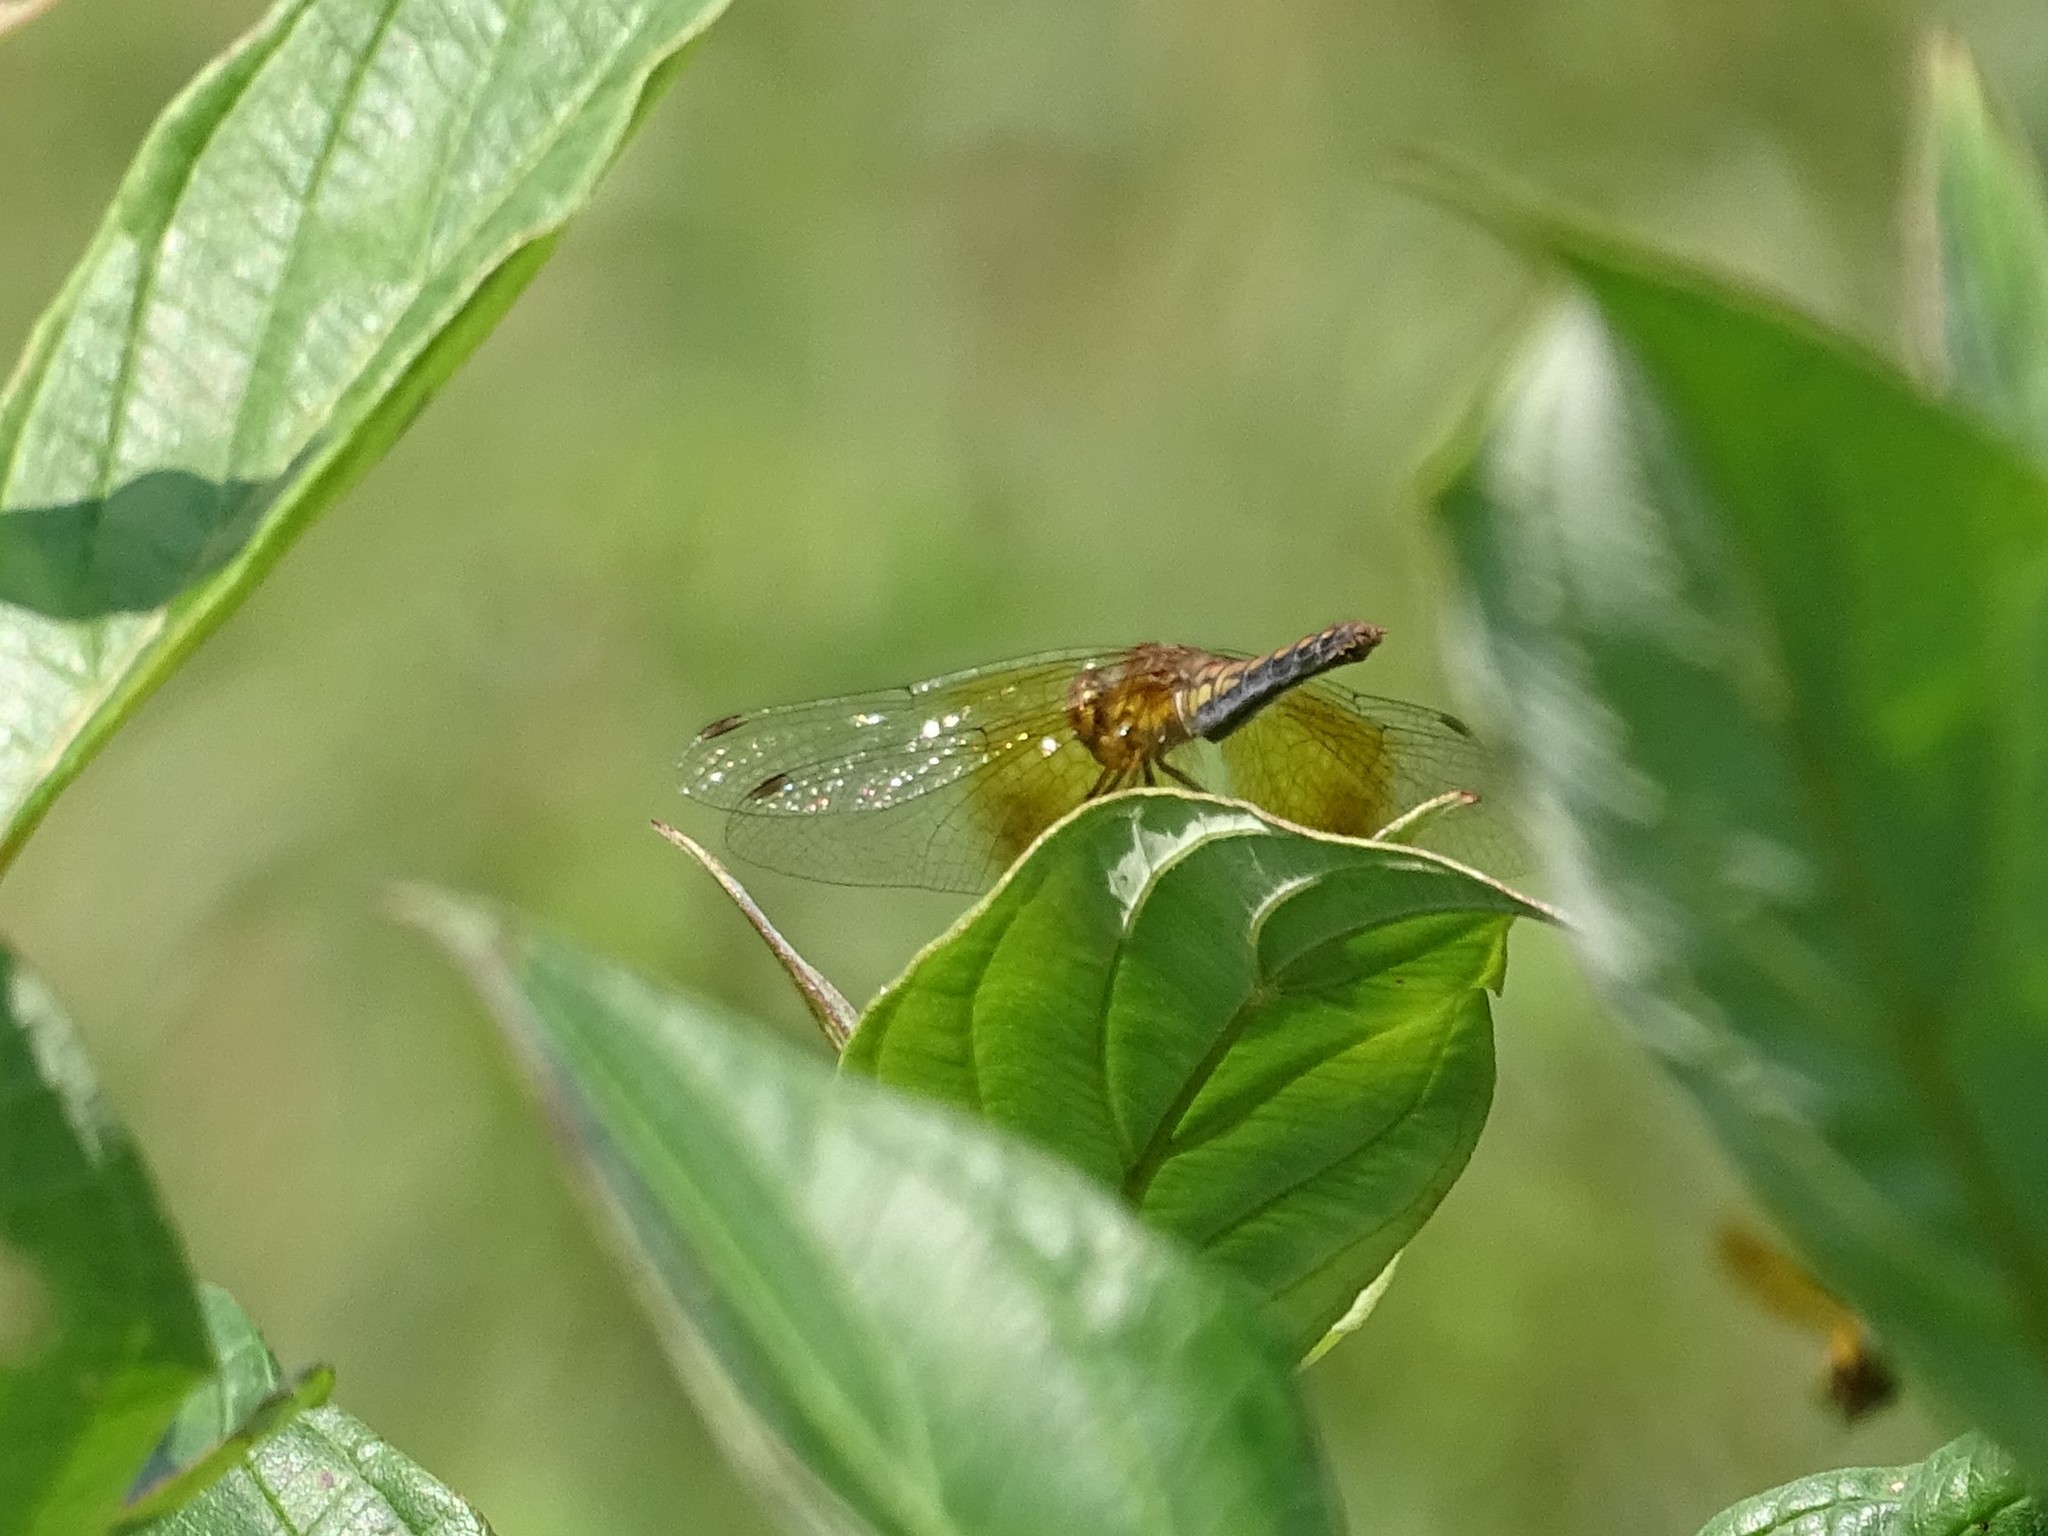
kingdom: Animalia
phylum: Arthropoda
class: Insecta
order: Odonata
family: Libellulidae
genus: Sympetrum
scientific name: Sympetrum semicinctum
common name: Band-winged meadowhawk
